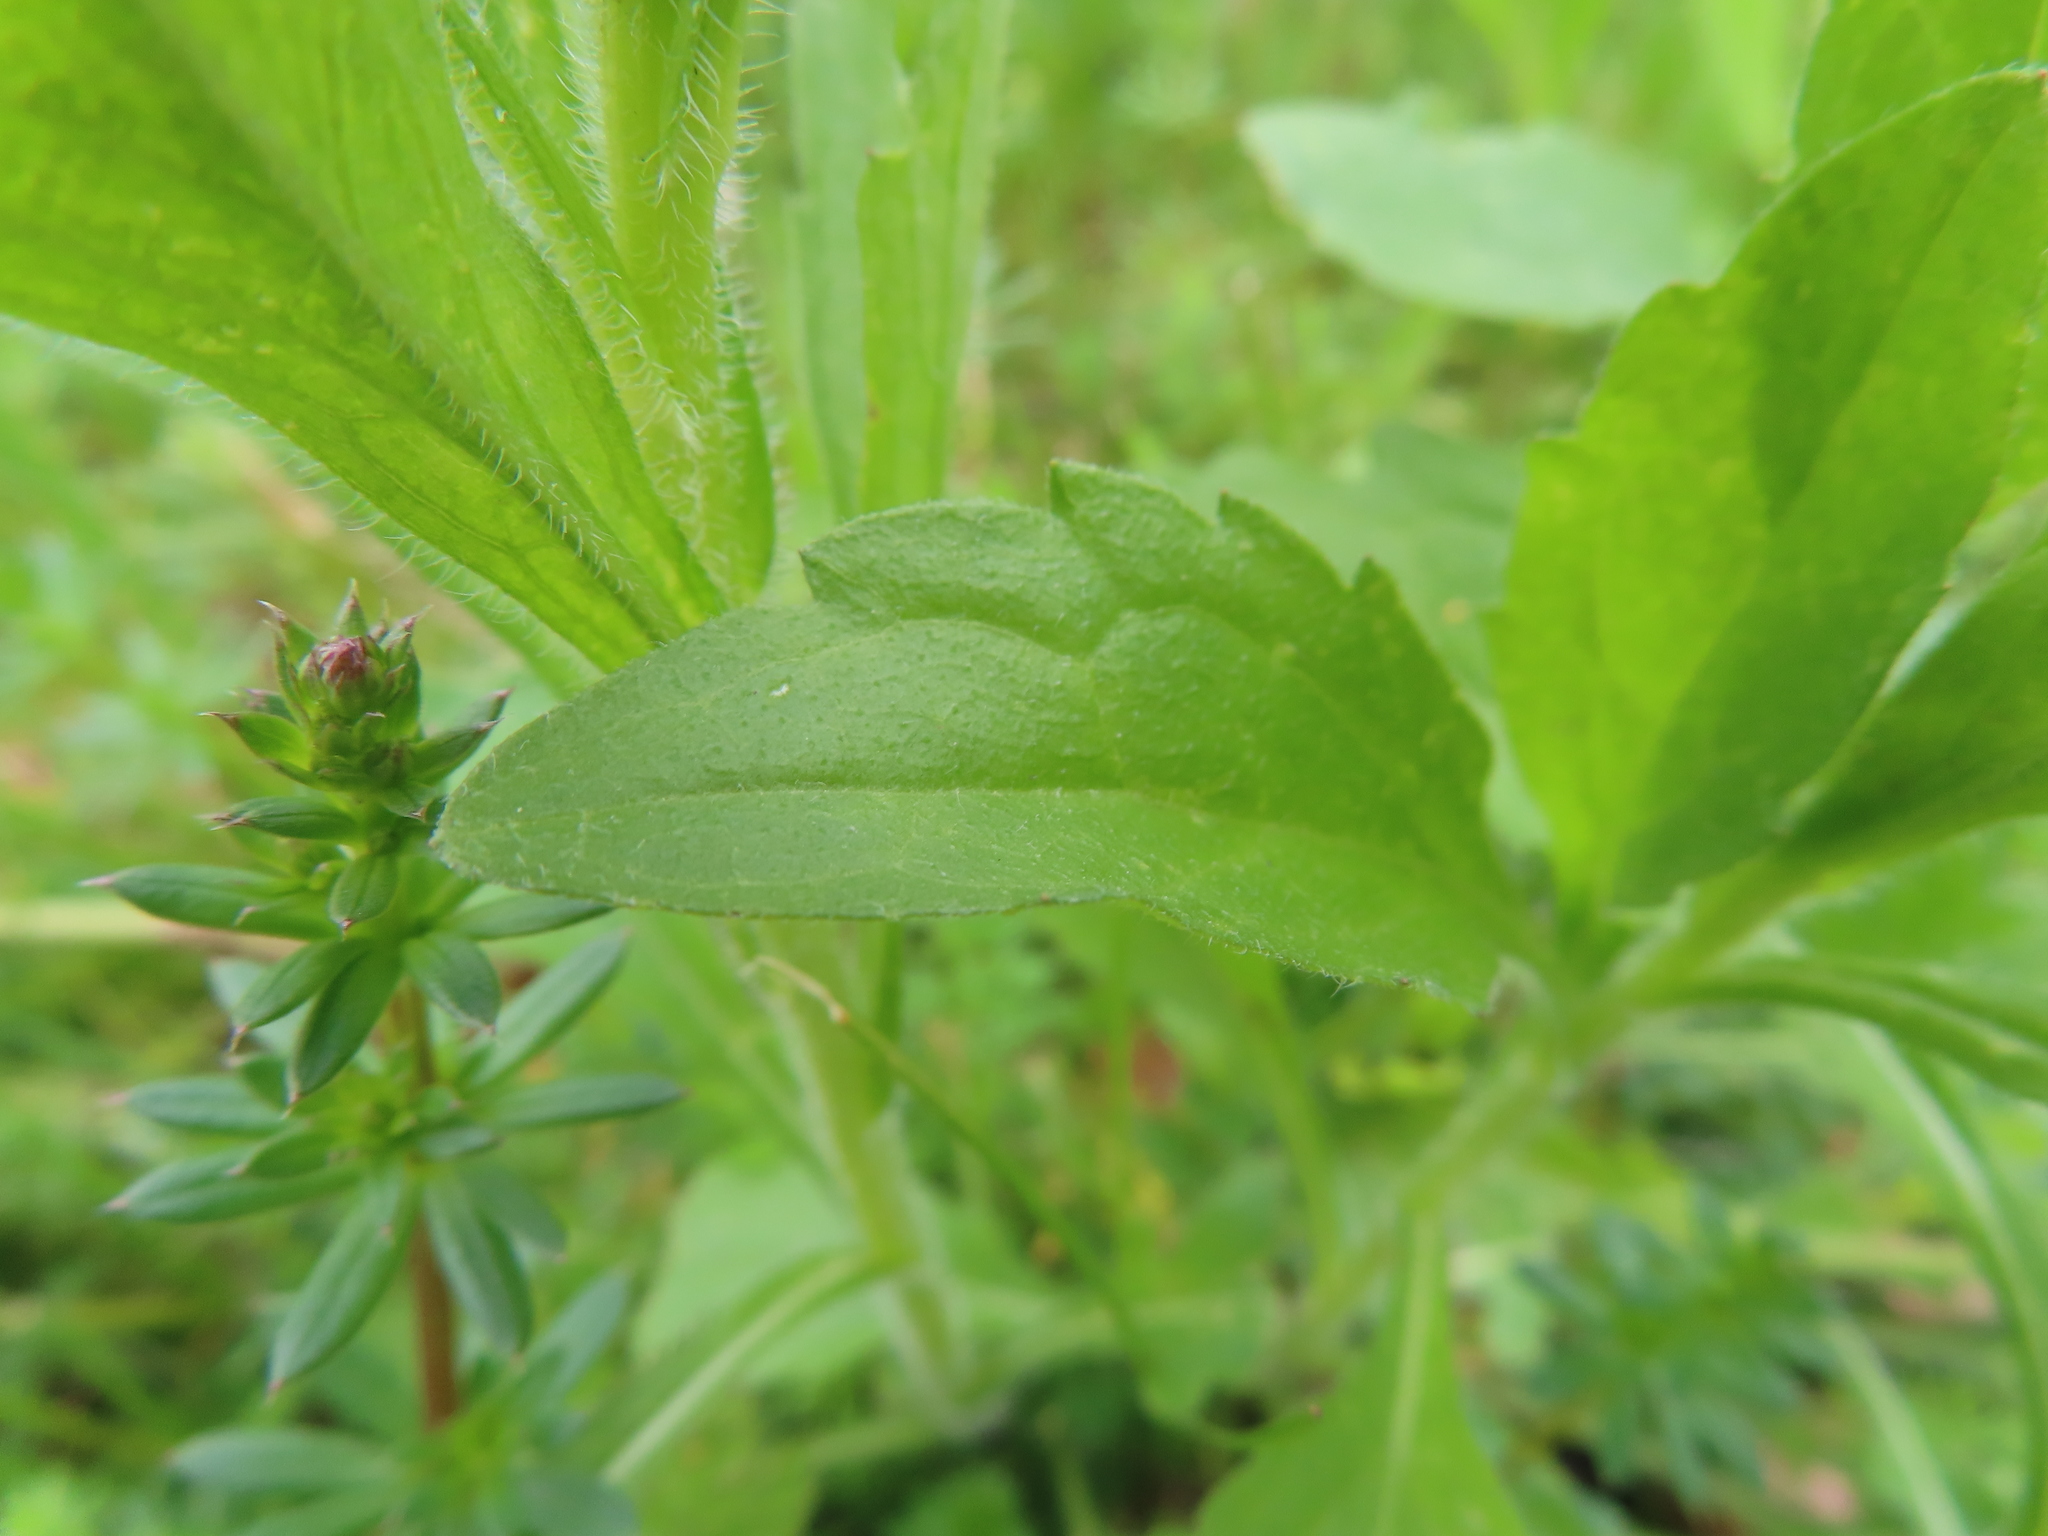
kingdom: Plantae
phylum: Tracheophyta
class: Magnoliopsida
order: Asterales
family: Asteraceae
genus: Erigeron
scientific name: Erigeron annuus
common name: Tall fleabane
